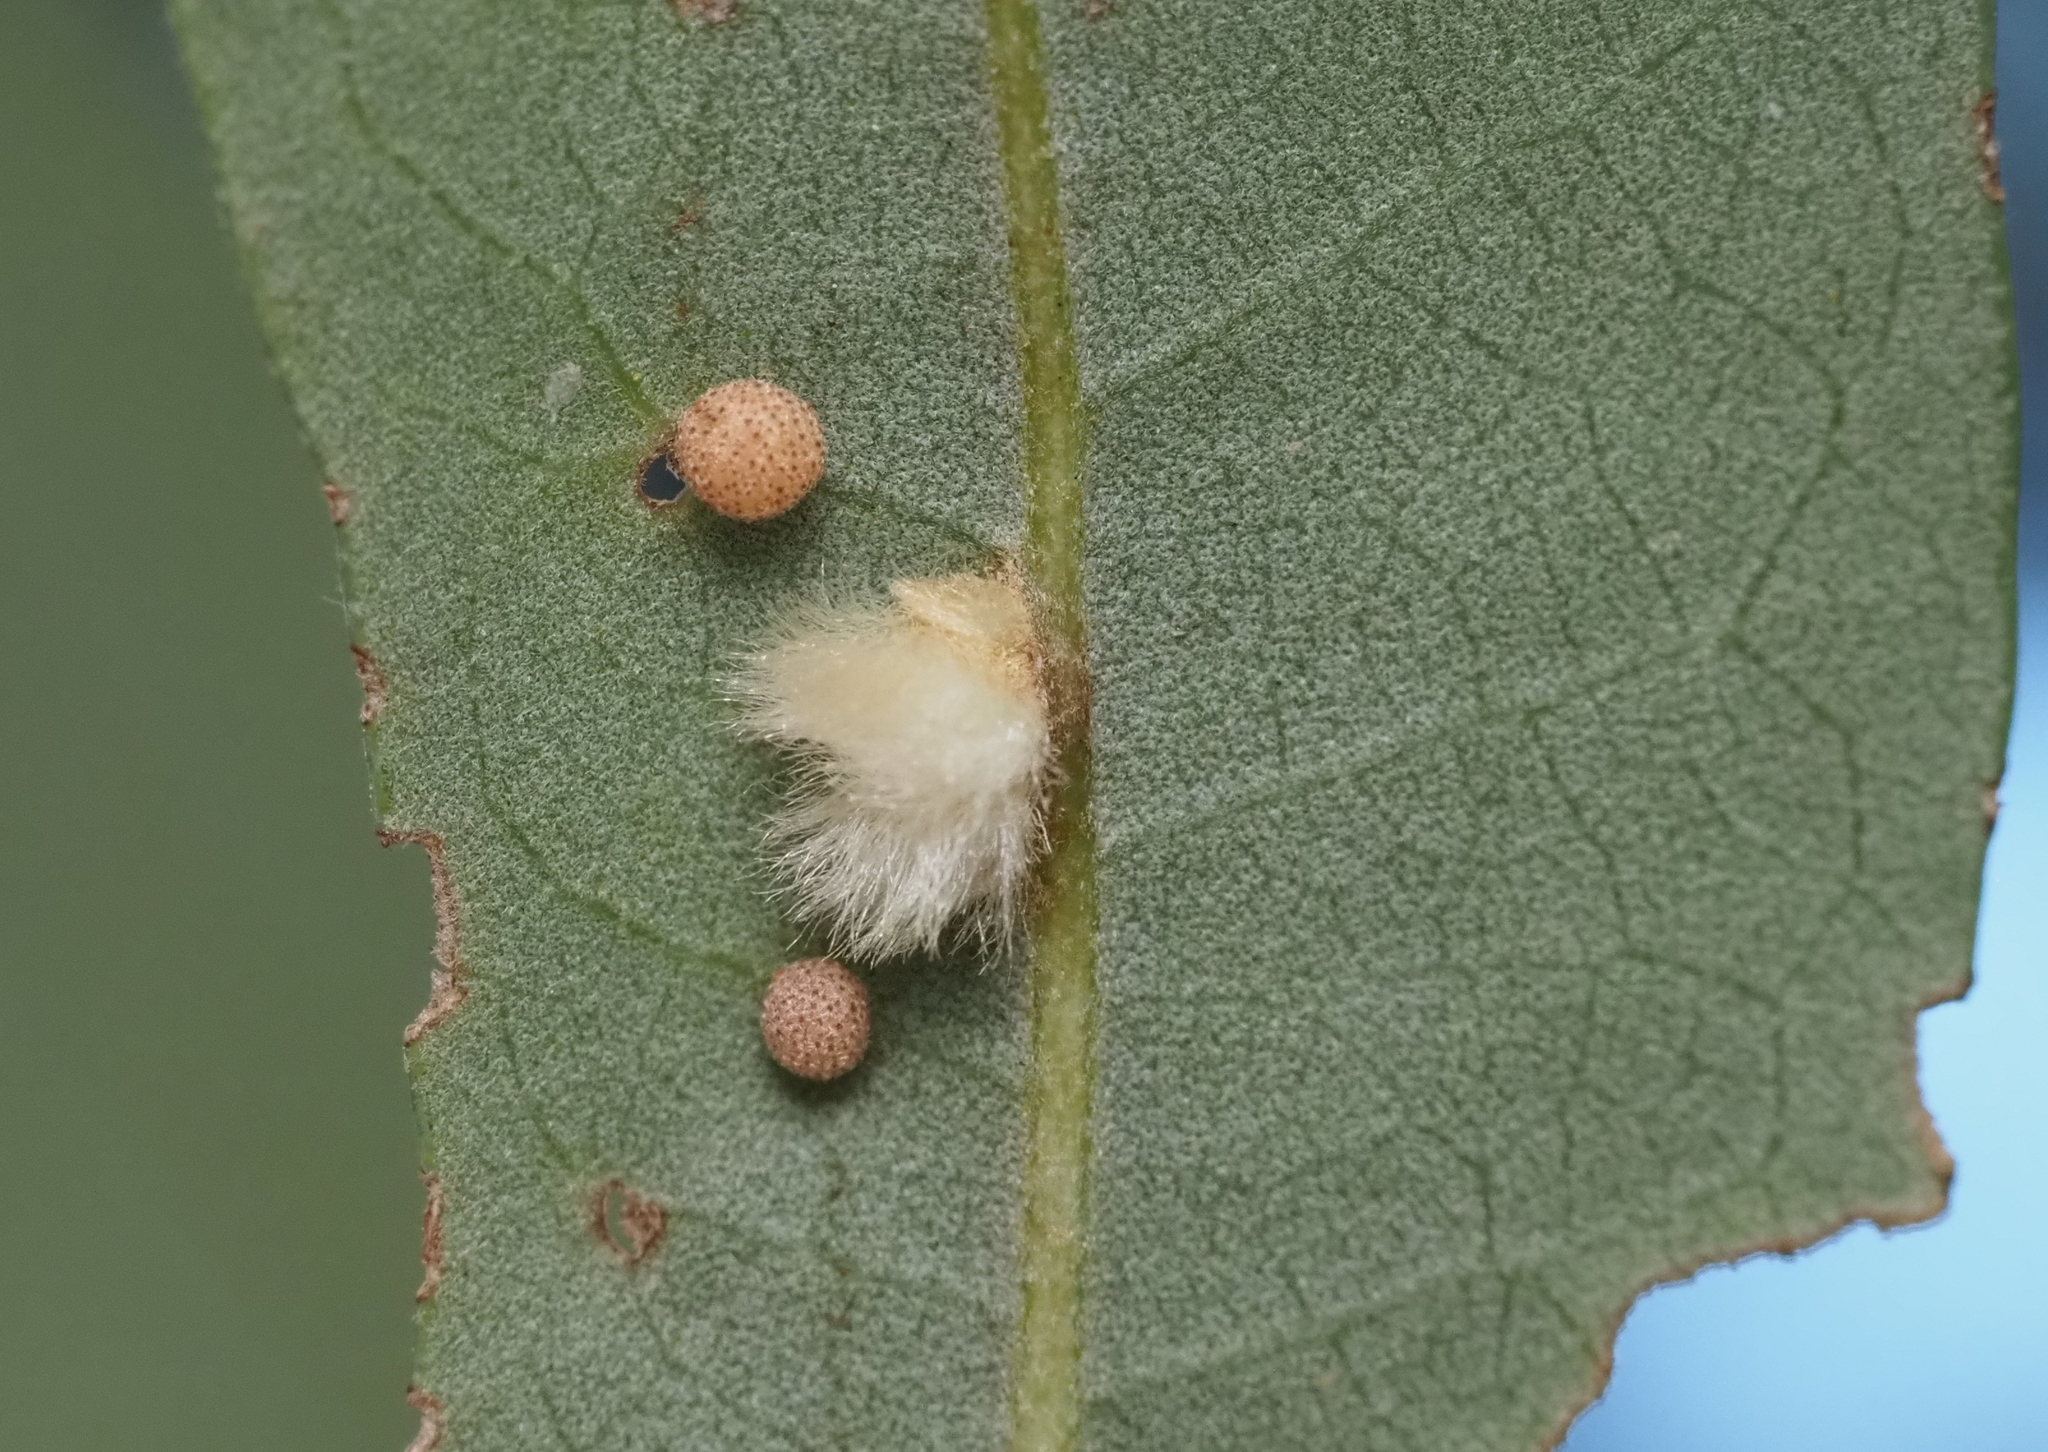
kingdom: Animalia
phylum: Arthropoda
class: Insecta
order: Hymenoptera
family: Cynipidae
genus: Andricus
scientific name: Andricus Druon quercuslanigerum
